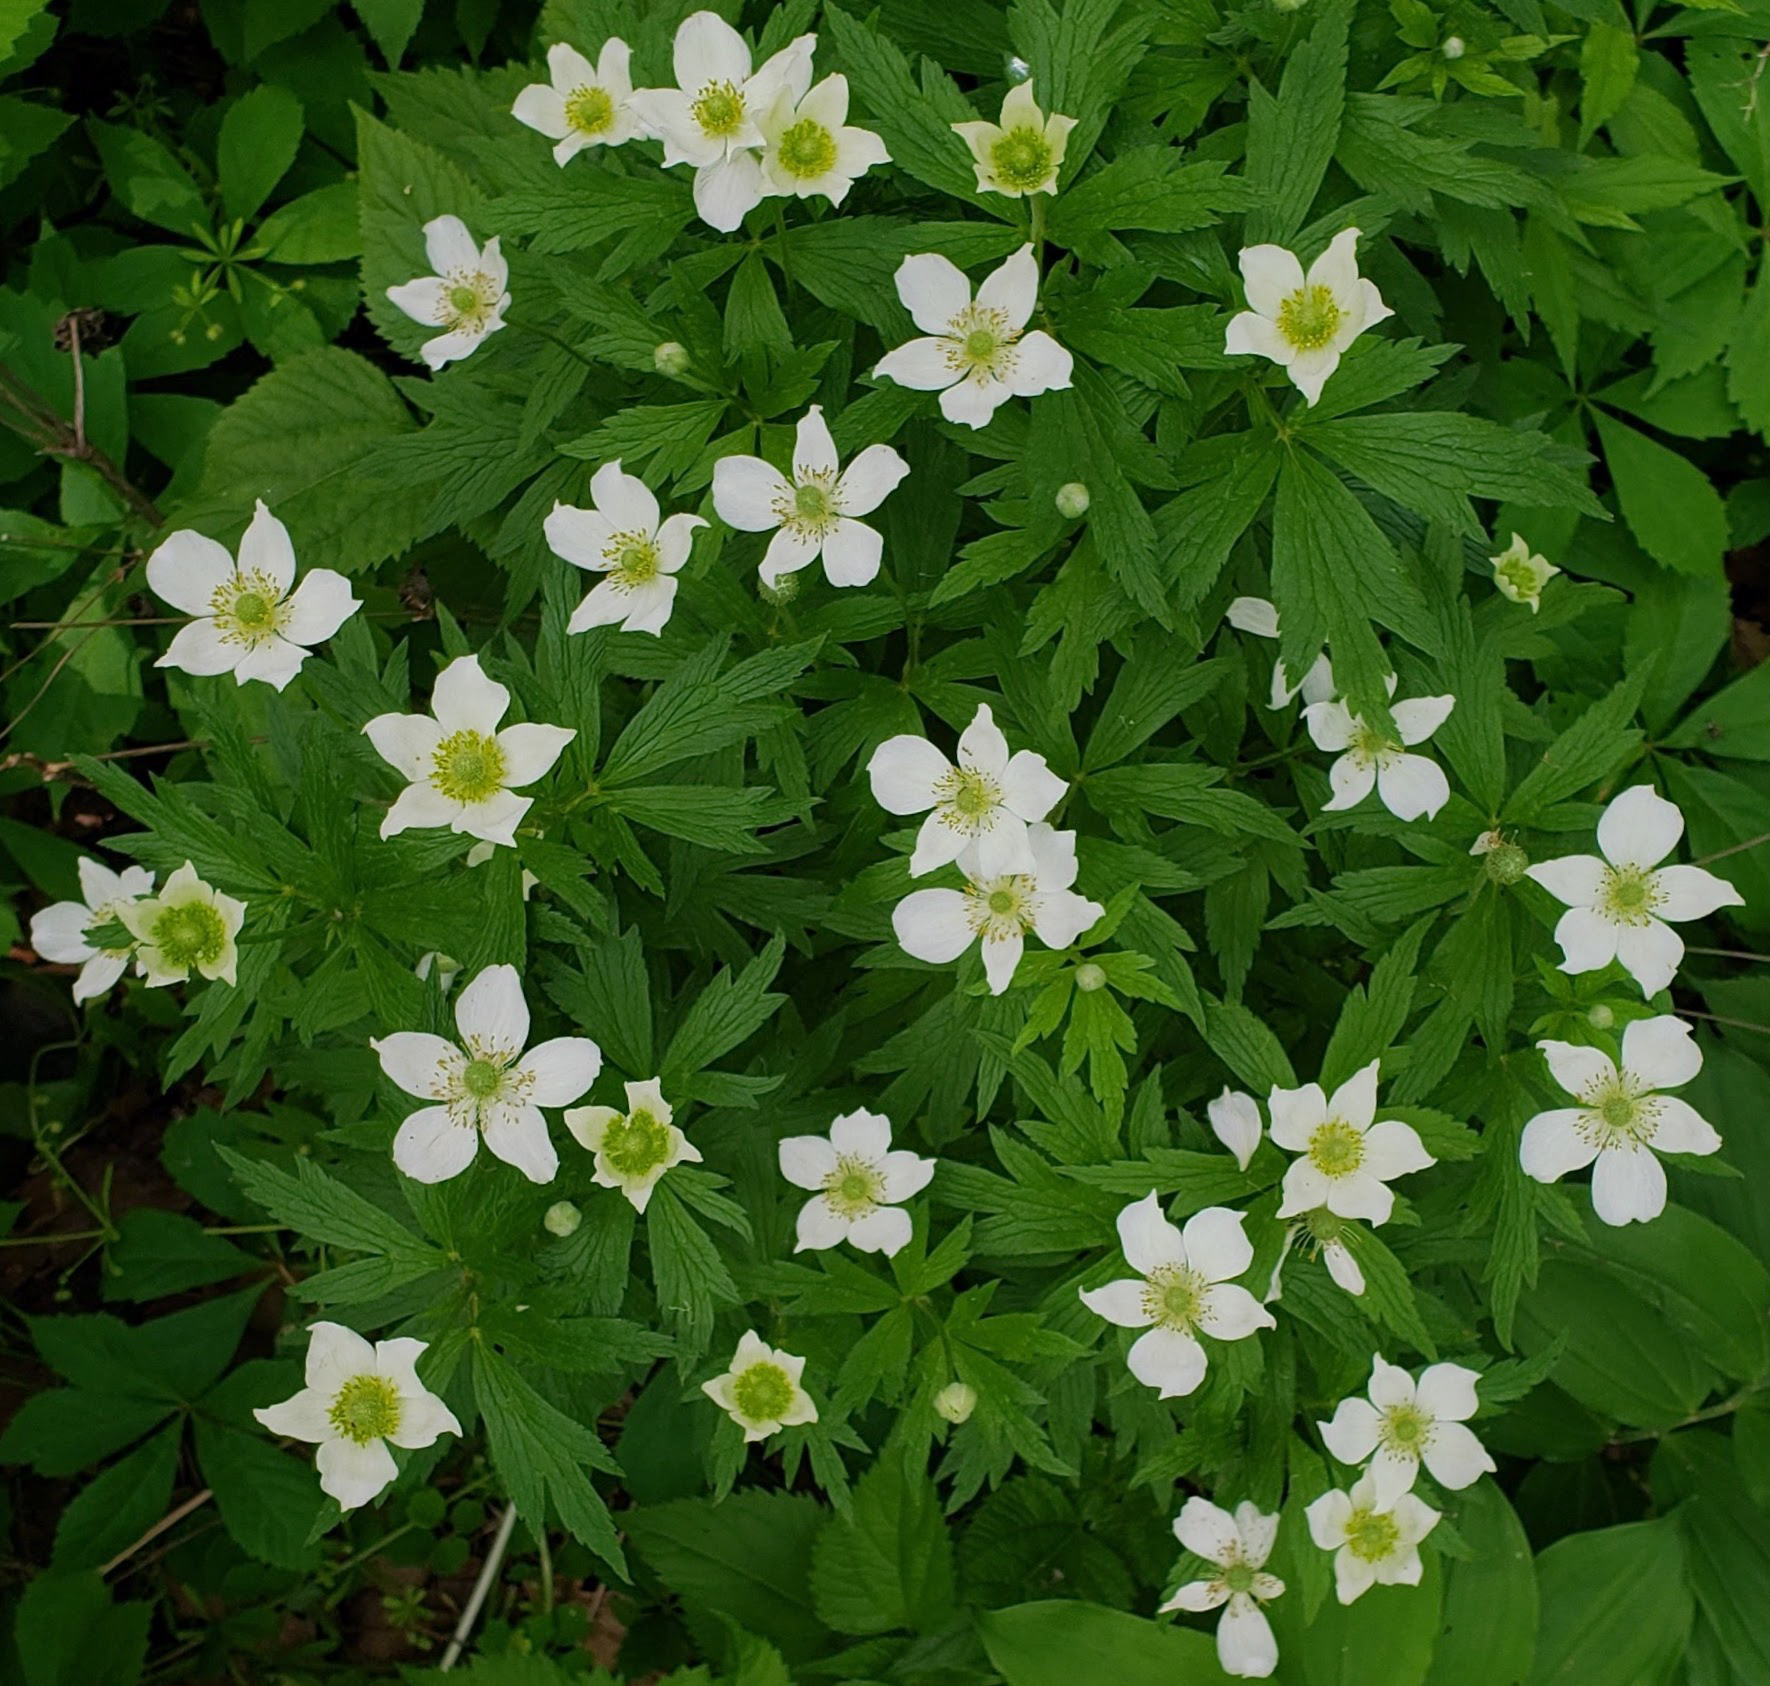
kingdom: Plantae
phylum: Tracheophyta
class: Magnoliopsida
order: Ranunculales
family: Ranunculaceae
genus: Anemone
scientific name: Anemone virginiana
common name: Tall anemone
